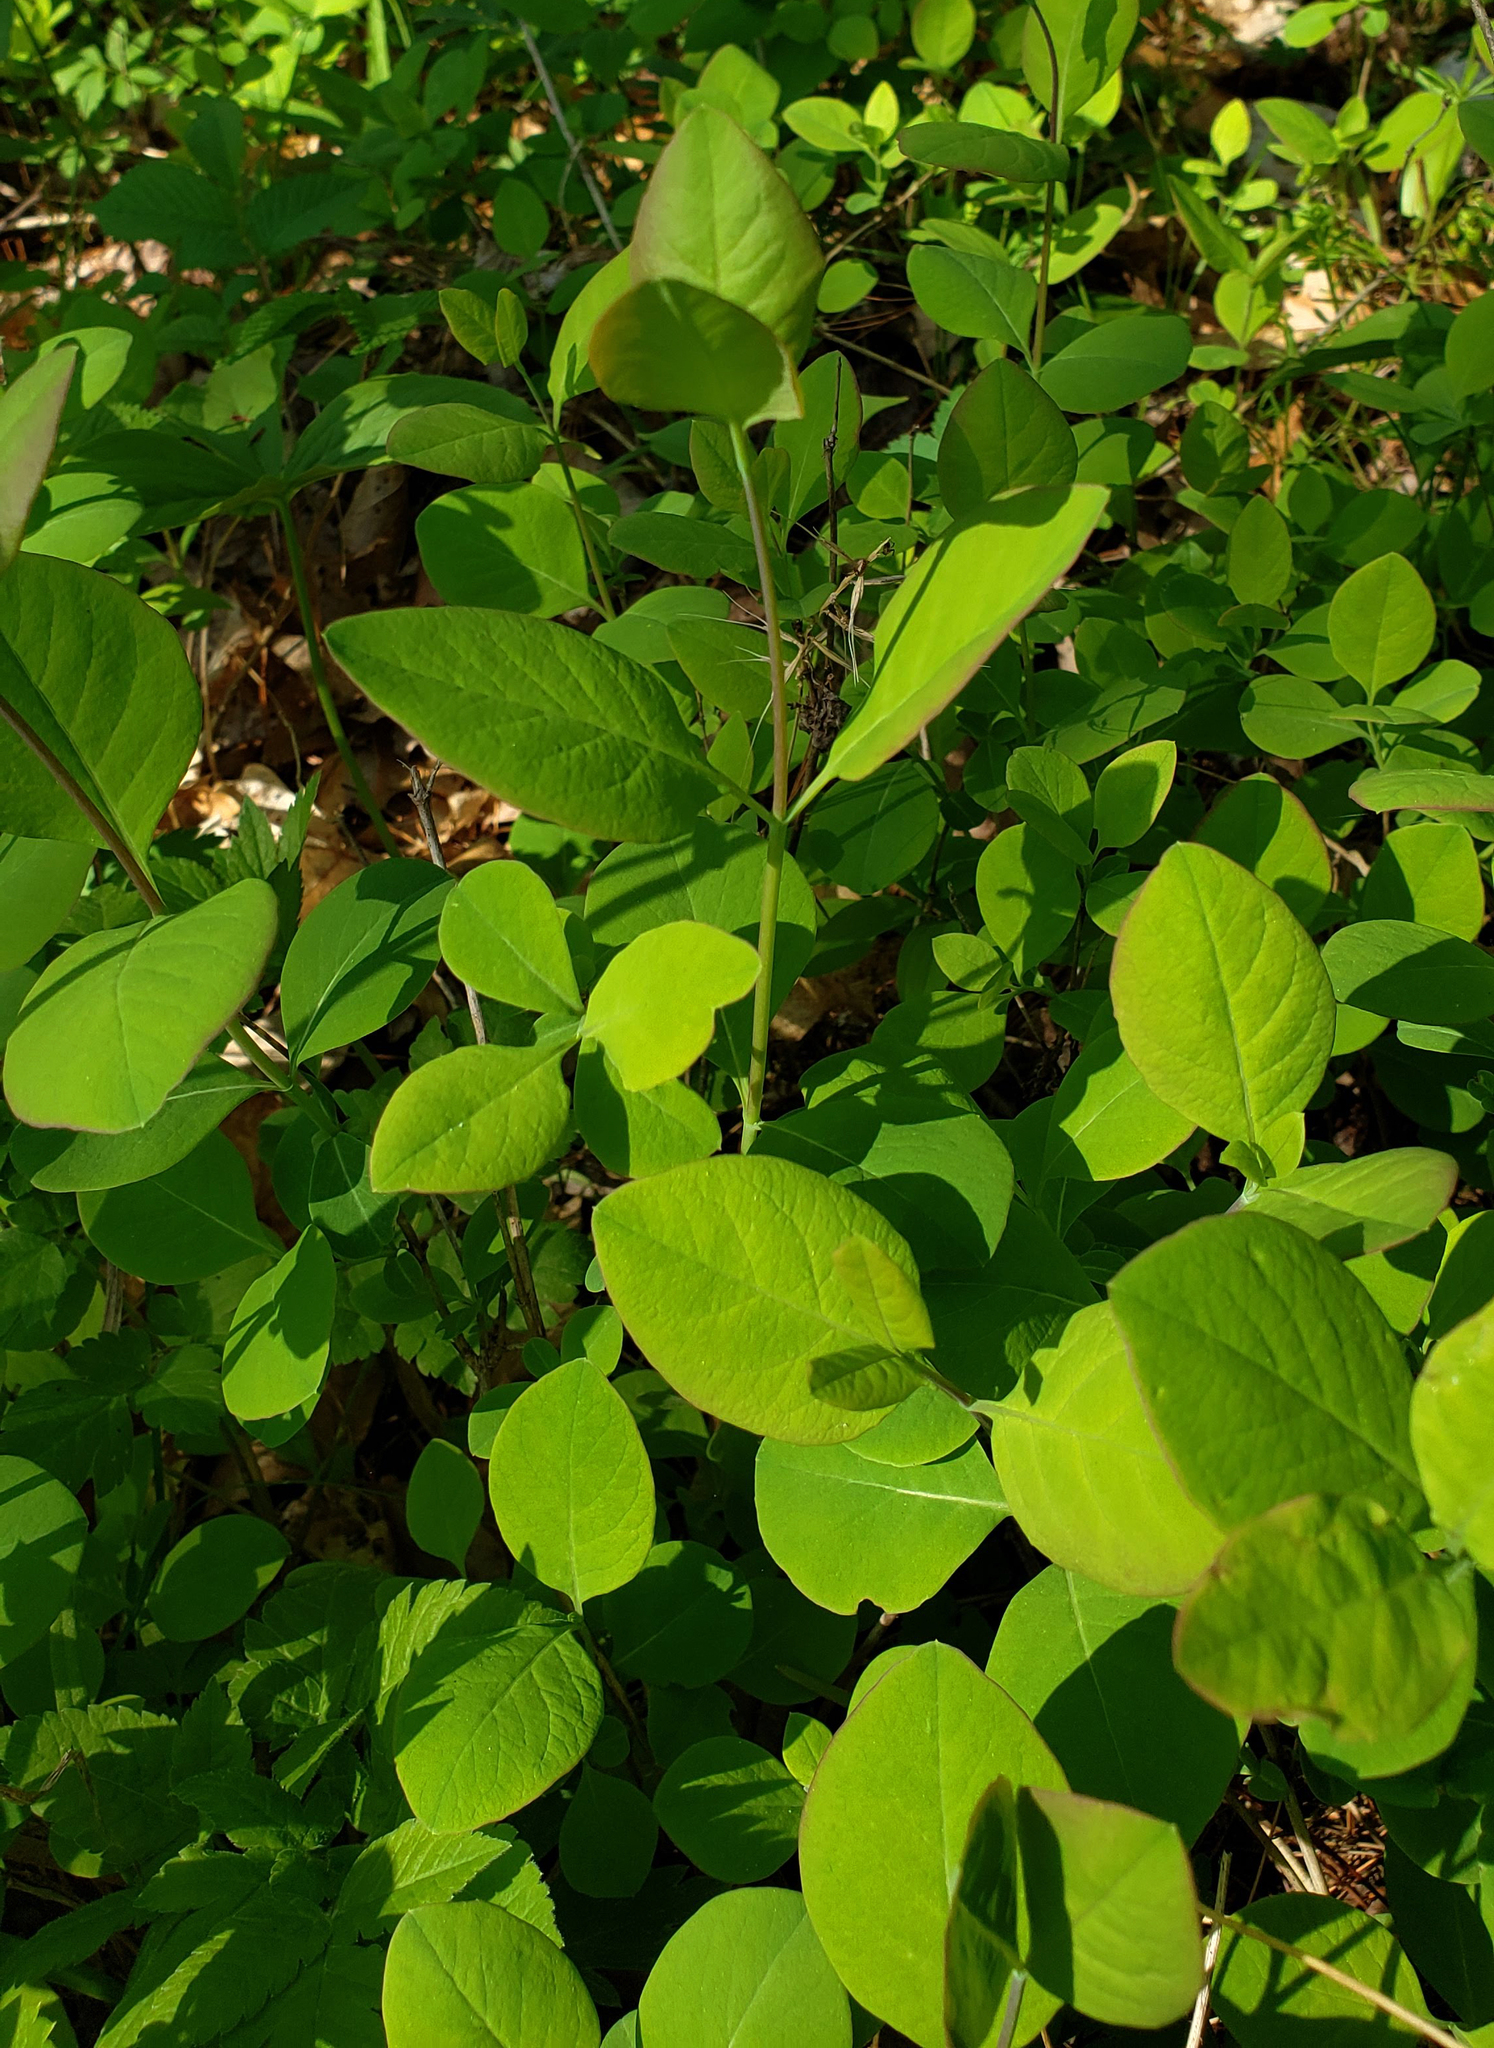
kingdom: Plantae
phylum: Tracheophyta
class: Magnoliopsida
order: Dipsacales
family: Caprifoliaceae
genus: Lonicera
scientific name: Lonicera reticulata
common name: Grape honeysuckle
